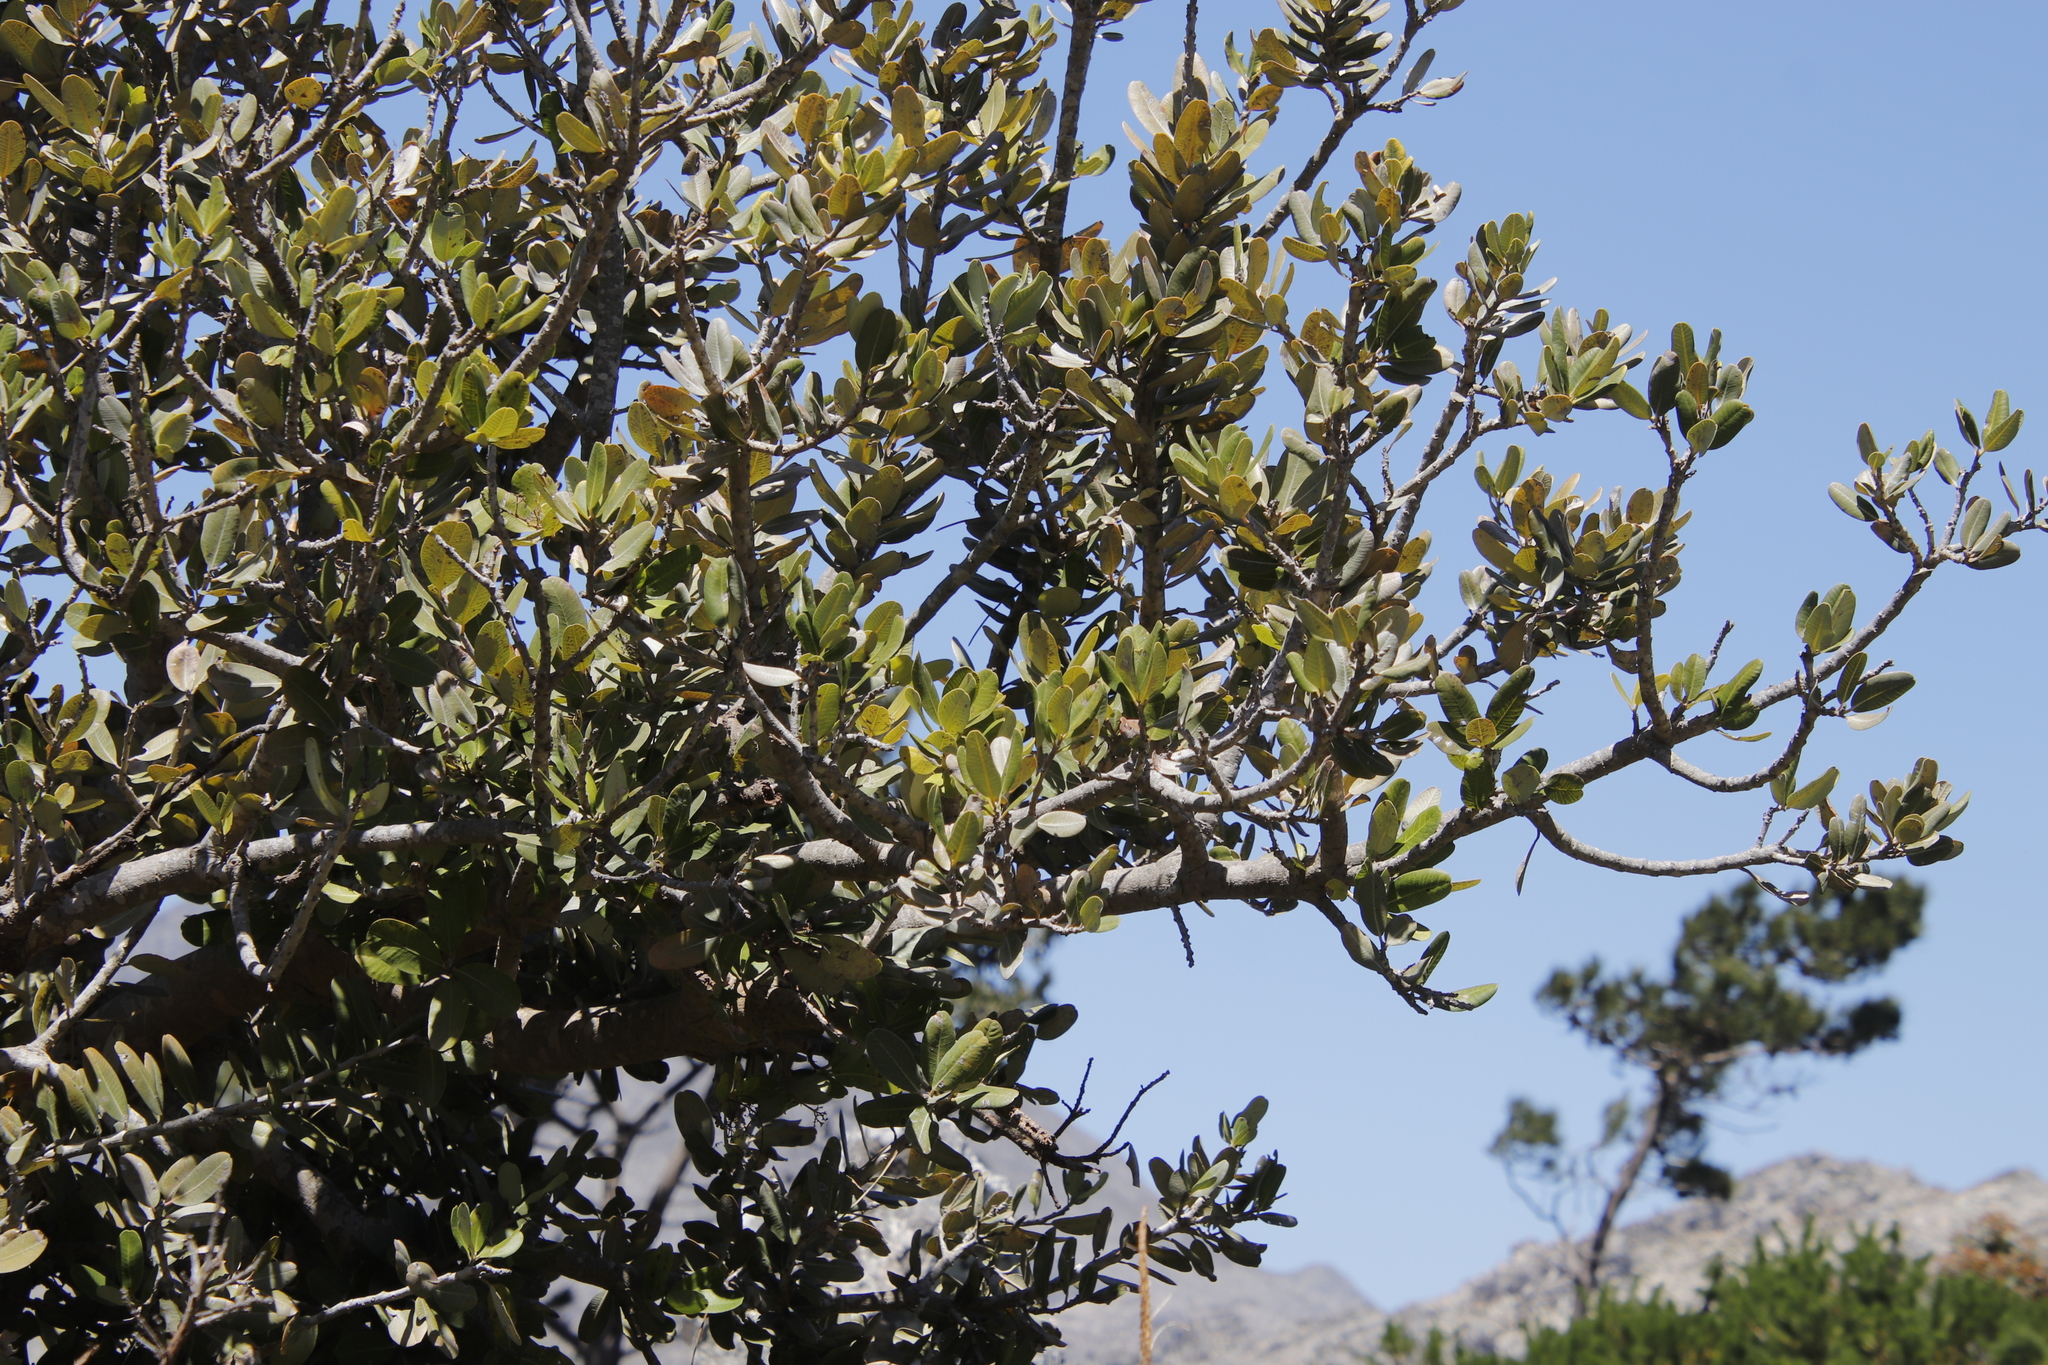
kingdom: Plantae
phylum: Tracheophyta
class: Magnoliopsida
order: Sapindales
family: Anacardiaceae
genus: Heeria
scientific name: Heeria argentea
